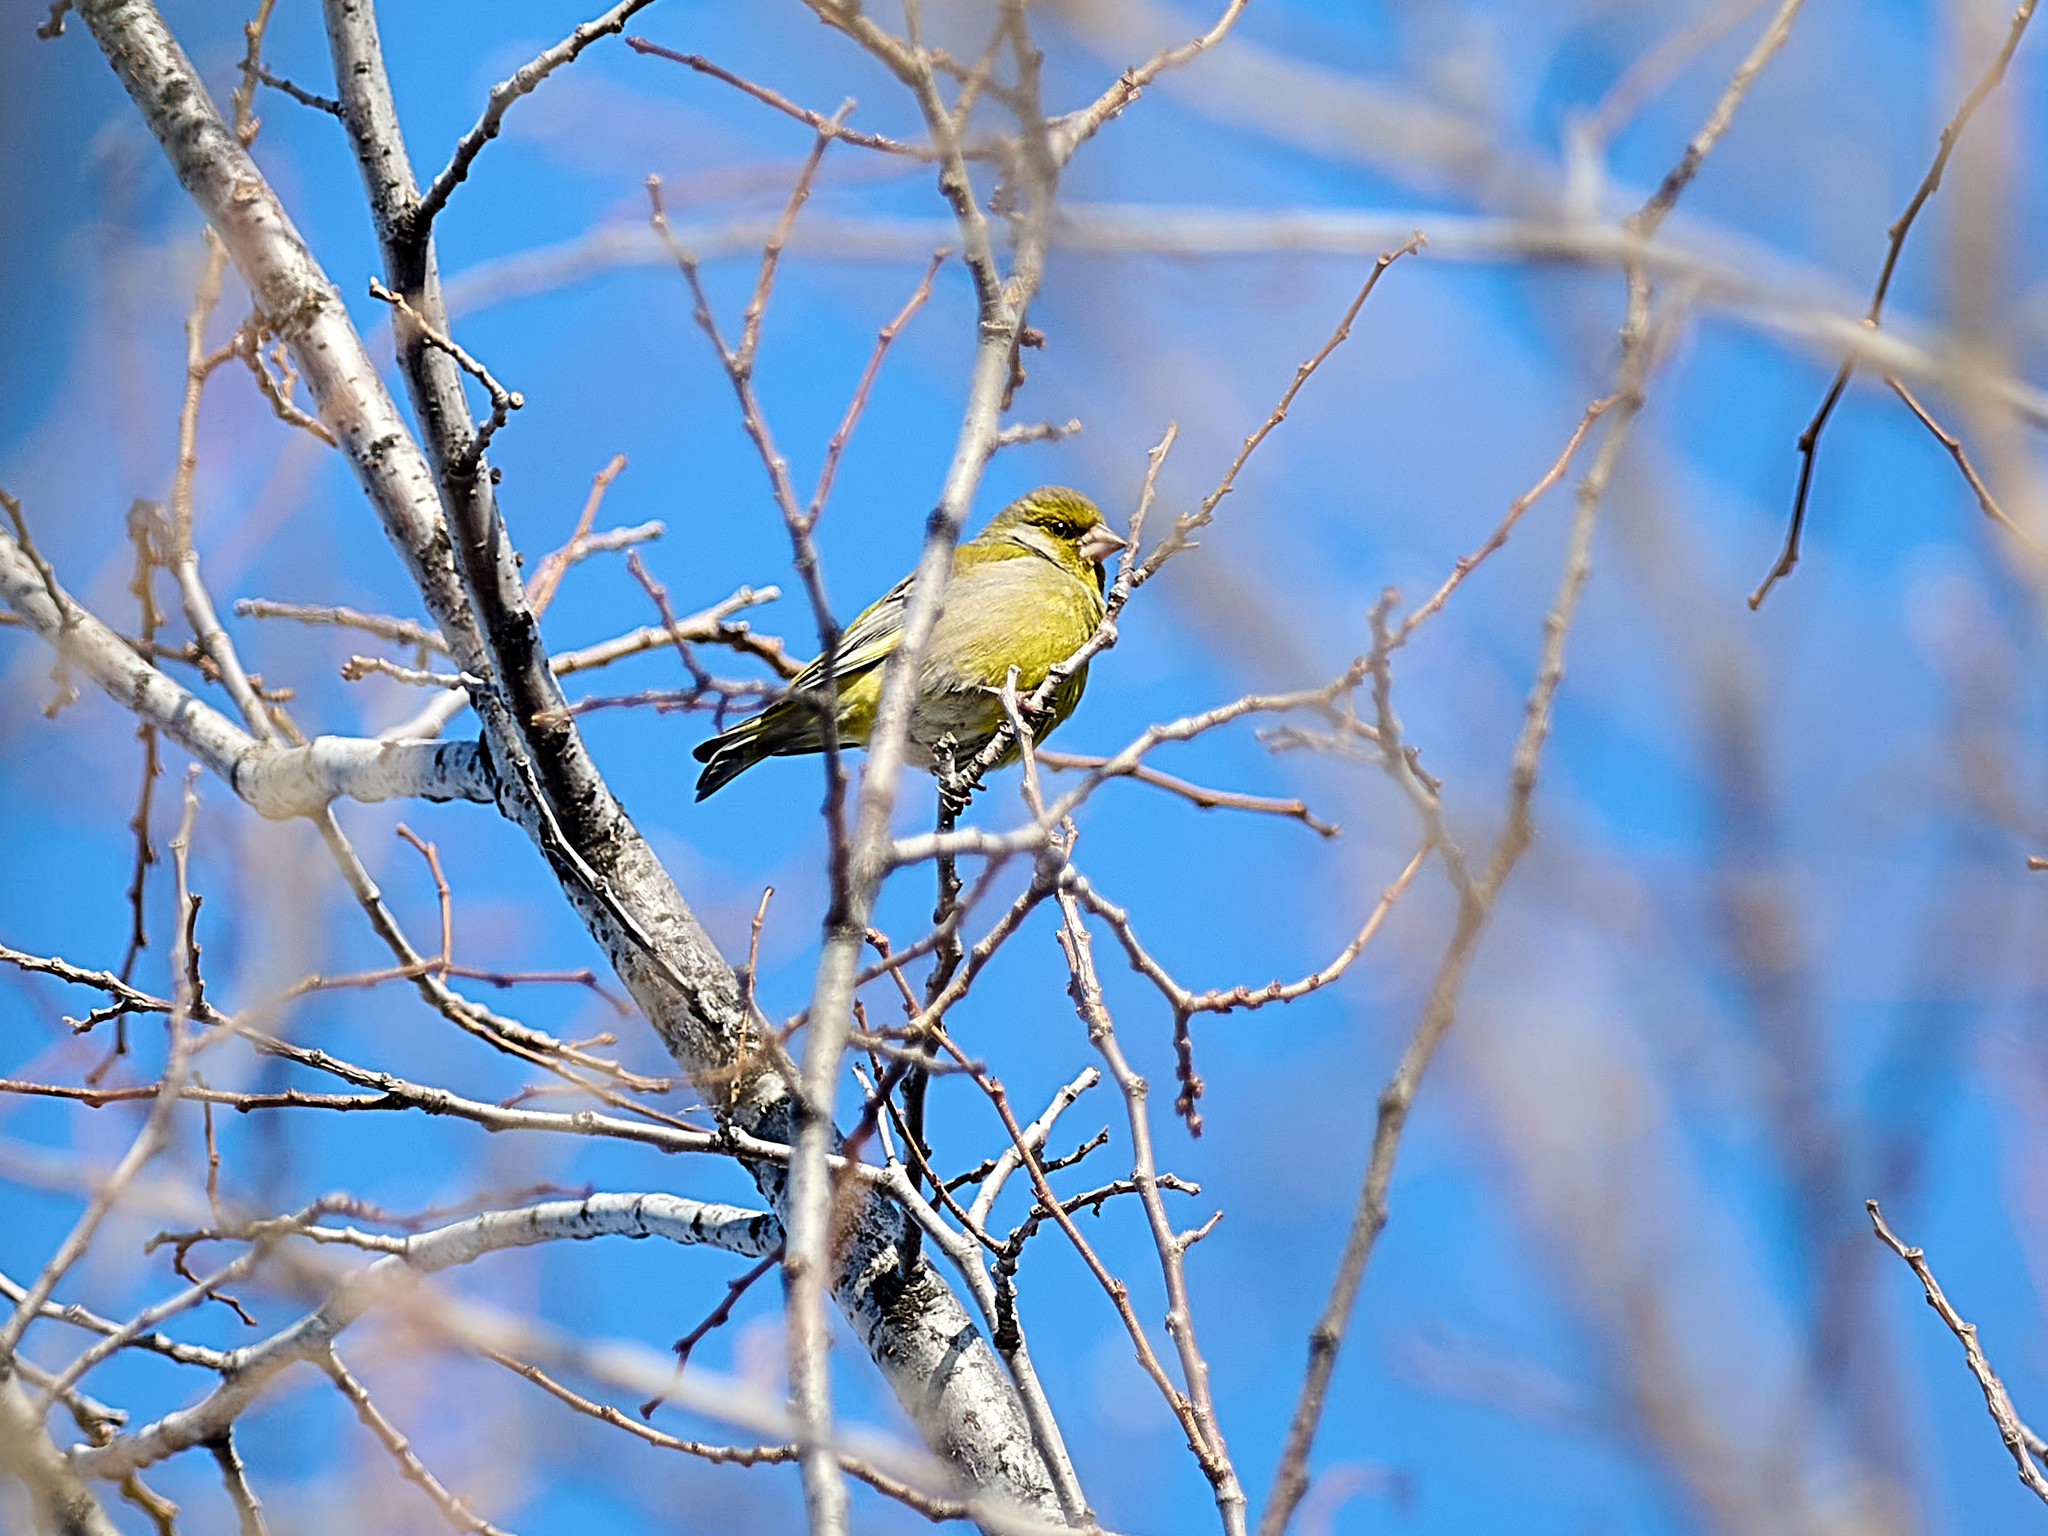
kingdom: Plantae
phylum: Tracheophyta
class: Liliopsida
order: Poales
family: Poaceae
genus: Chloris
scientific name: Chloris chloris
